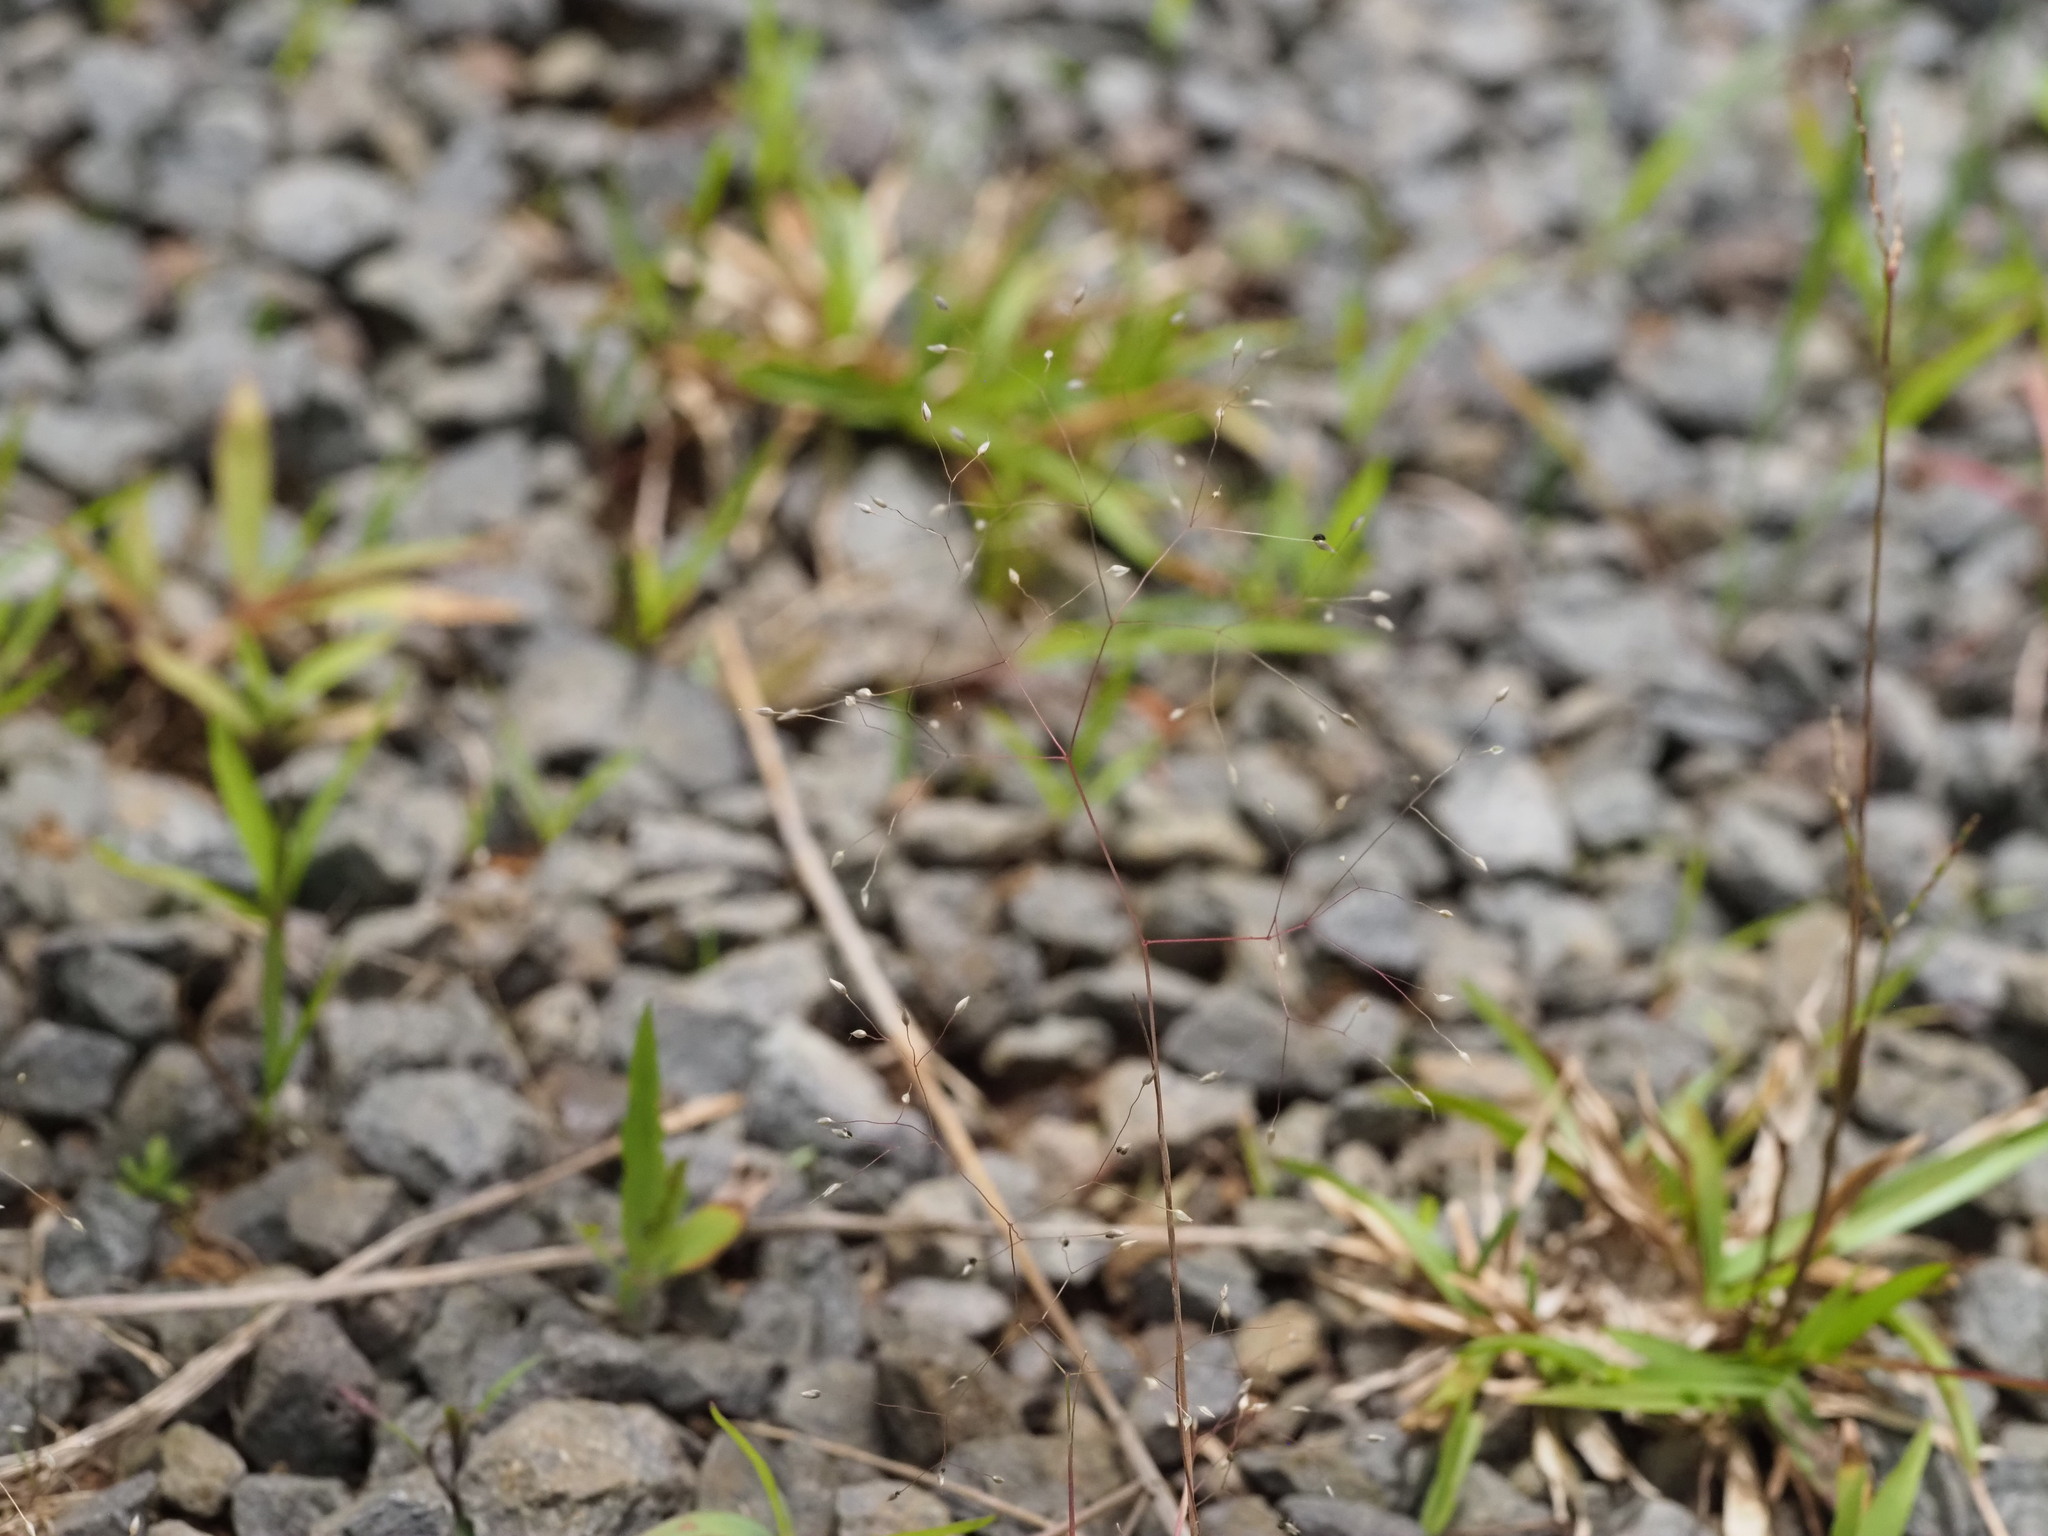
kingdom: Plantae
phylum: Tracheophyta
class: Liliopsida
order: Poales
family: Poaceae
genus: Aira
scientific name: Aira caryophyllea
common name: Silver hairgrass
